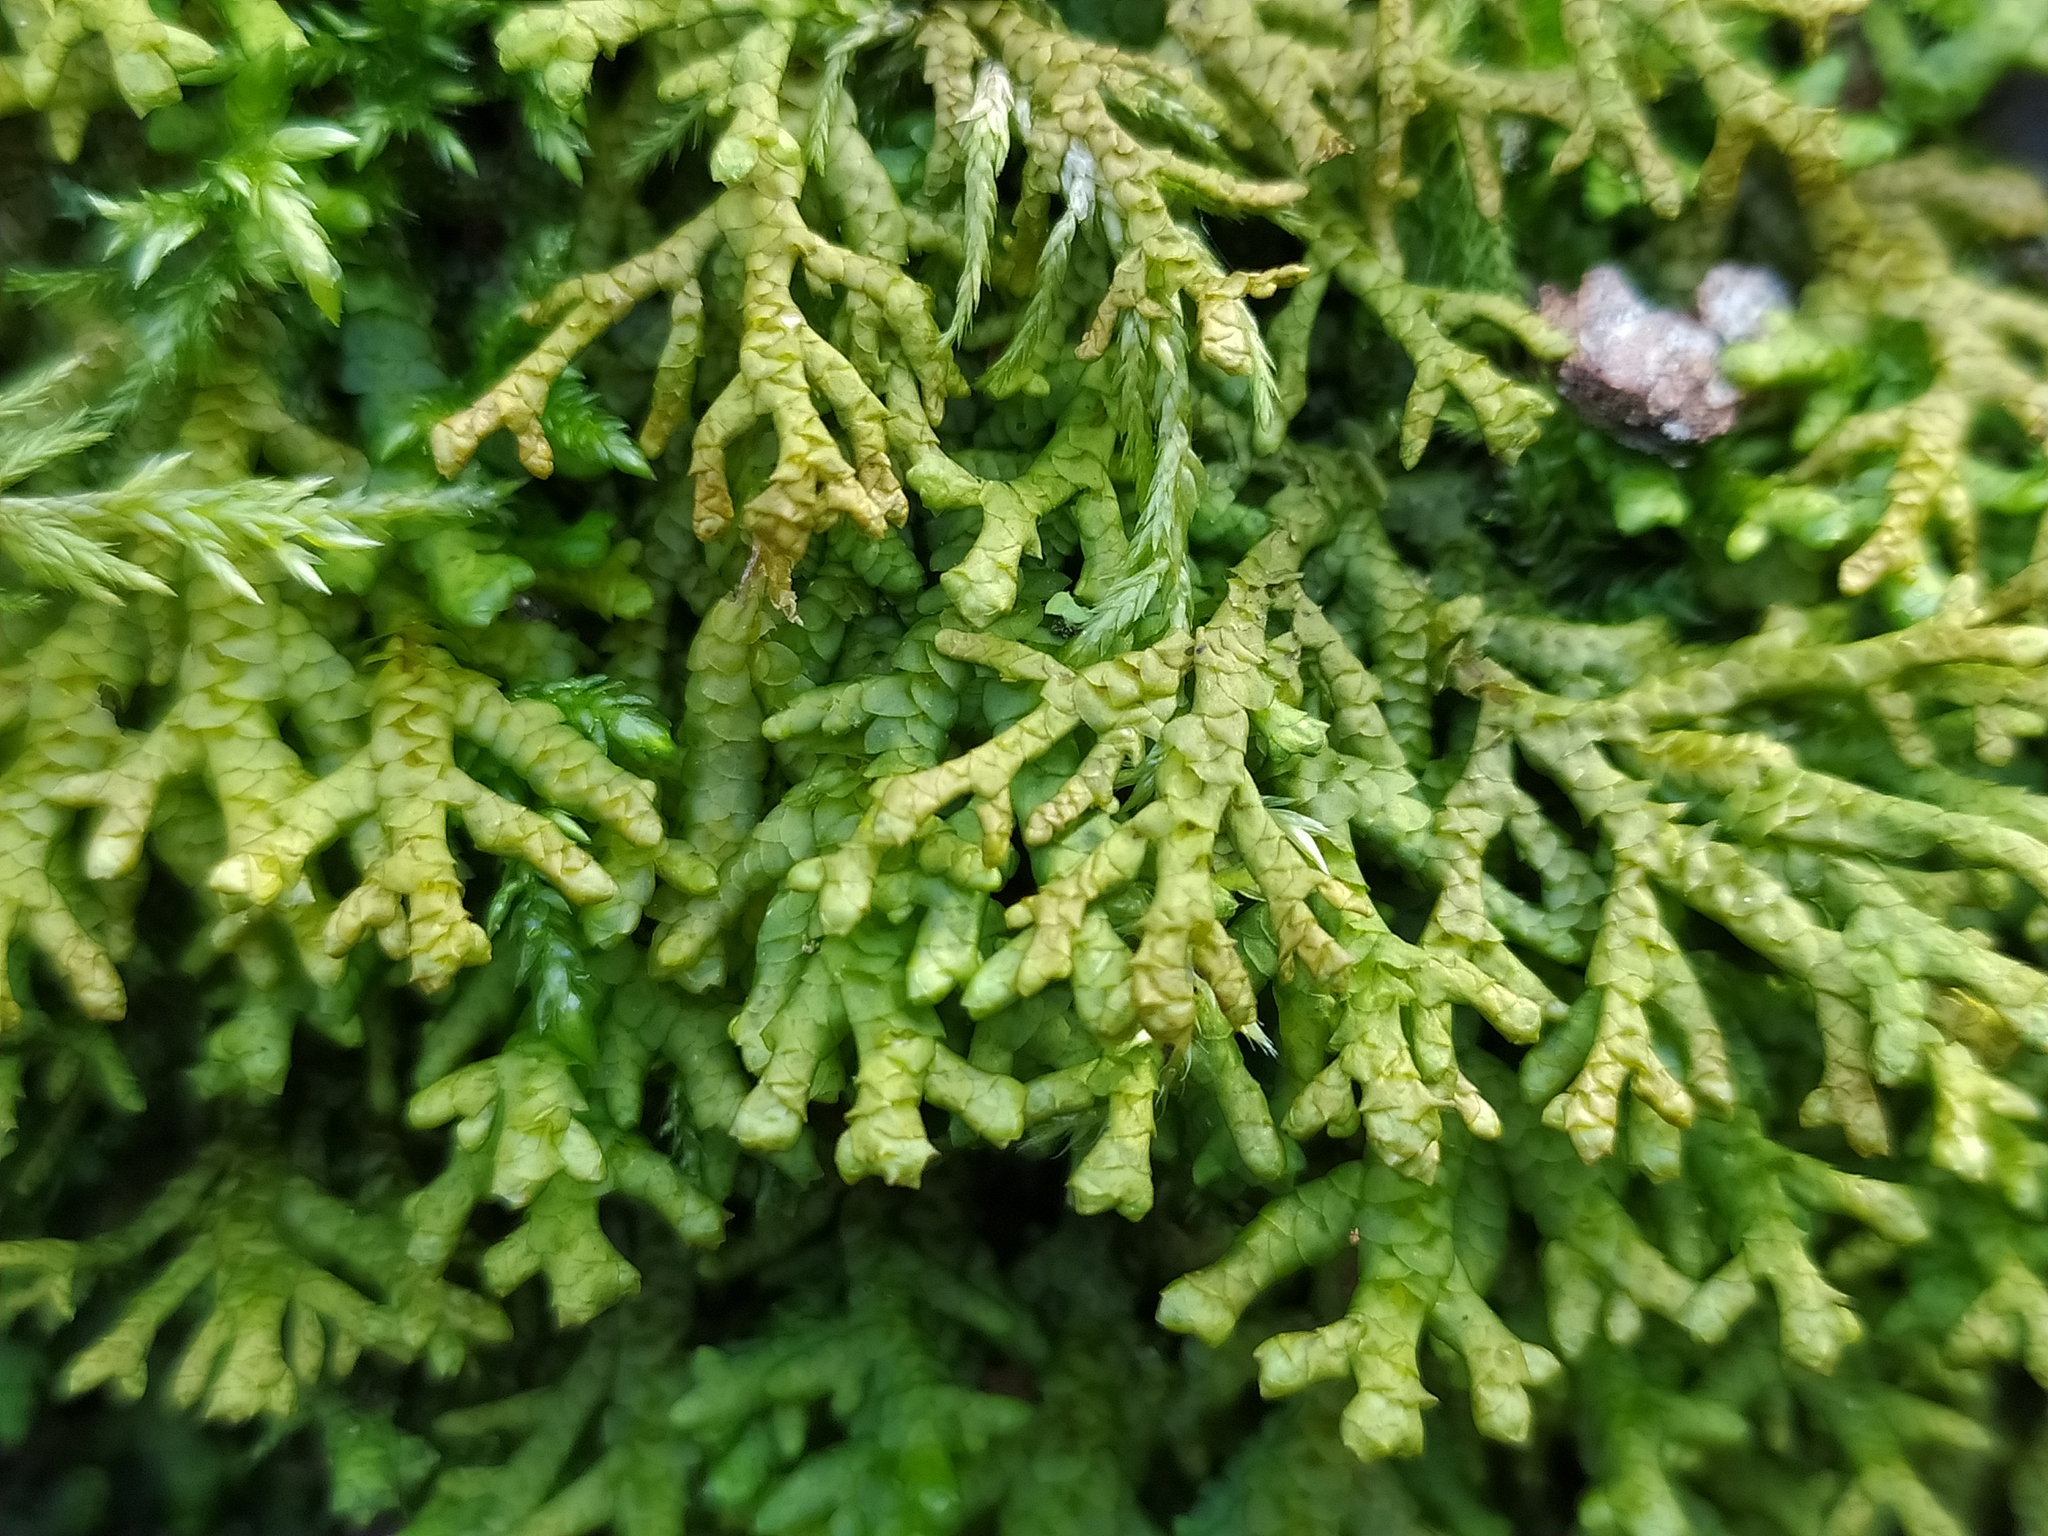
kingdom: Plantae
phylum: Marchantiophyta
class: Jungermanniopsida
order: Porellales
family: Porellaceae
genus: Porella
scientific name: Porella platyphylla
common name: Wall scalewort
